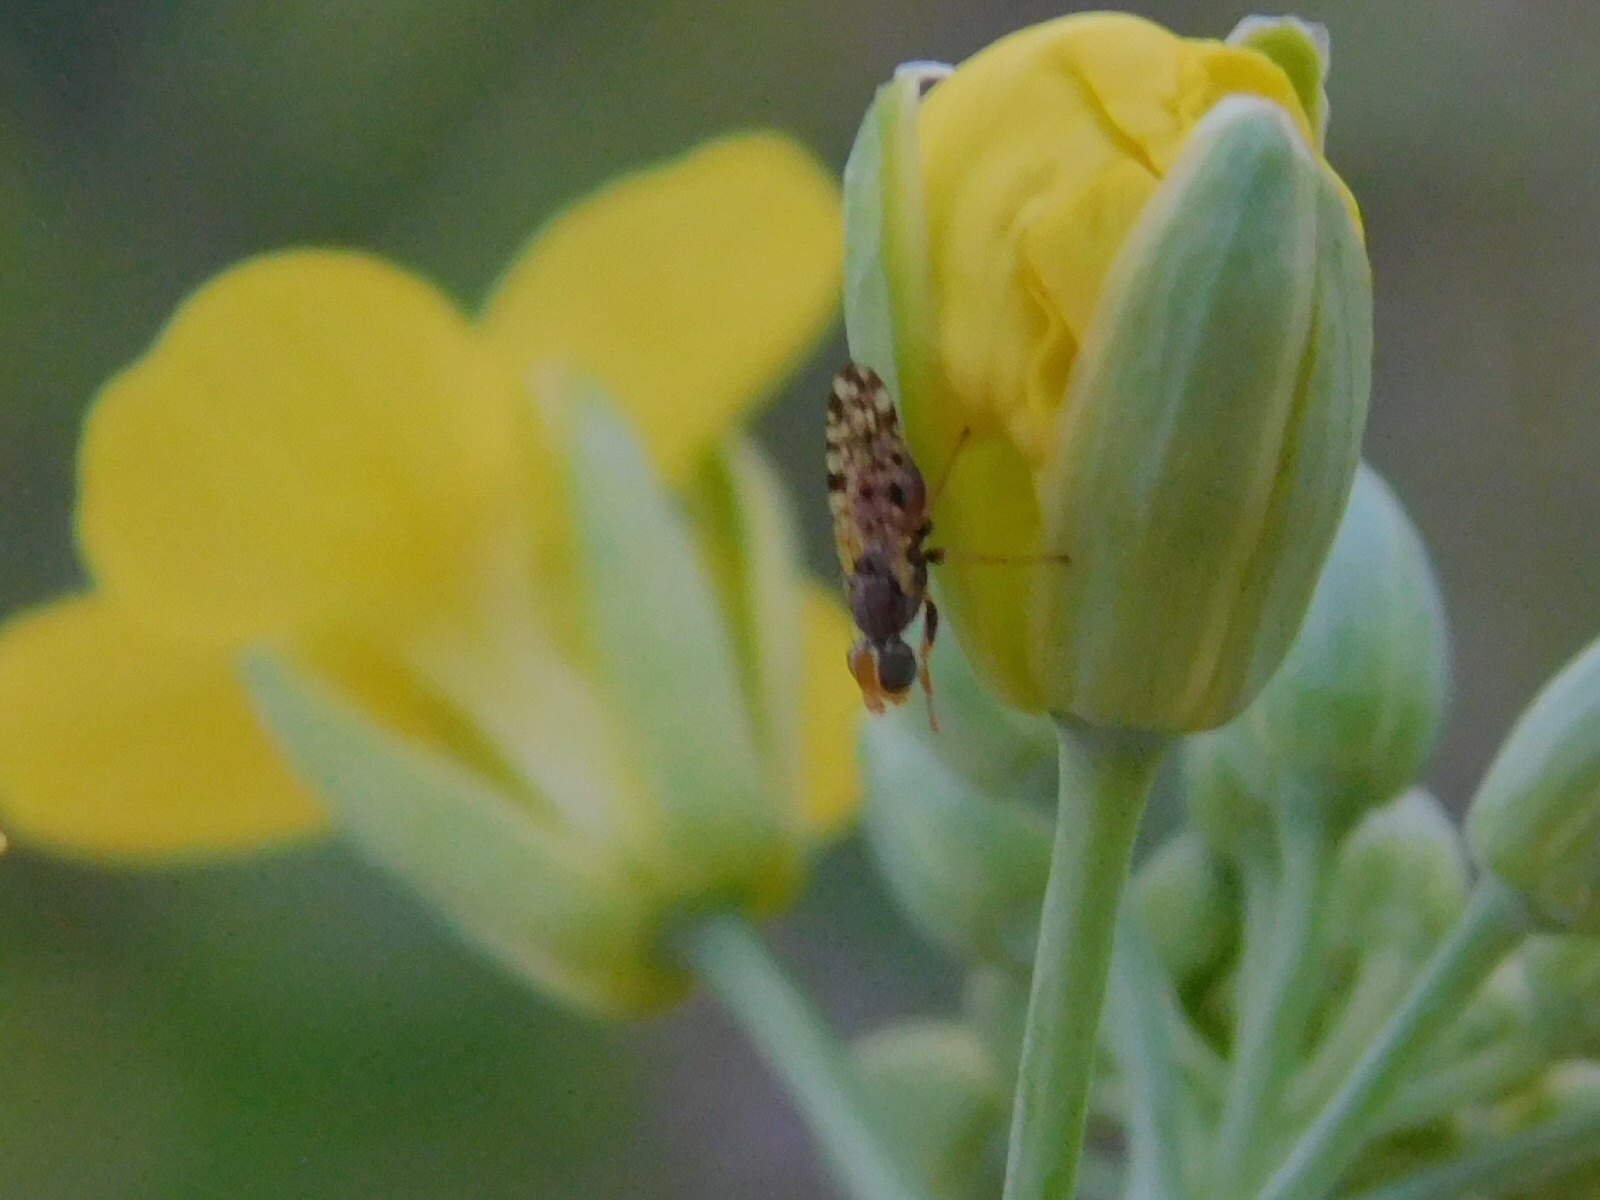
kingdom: Animalia
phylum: Arthropoda
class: Insecta
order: Diptera
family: Tephritidae
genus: Dioxyna
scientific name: Dioxyna picciola
